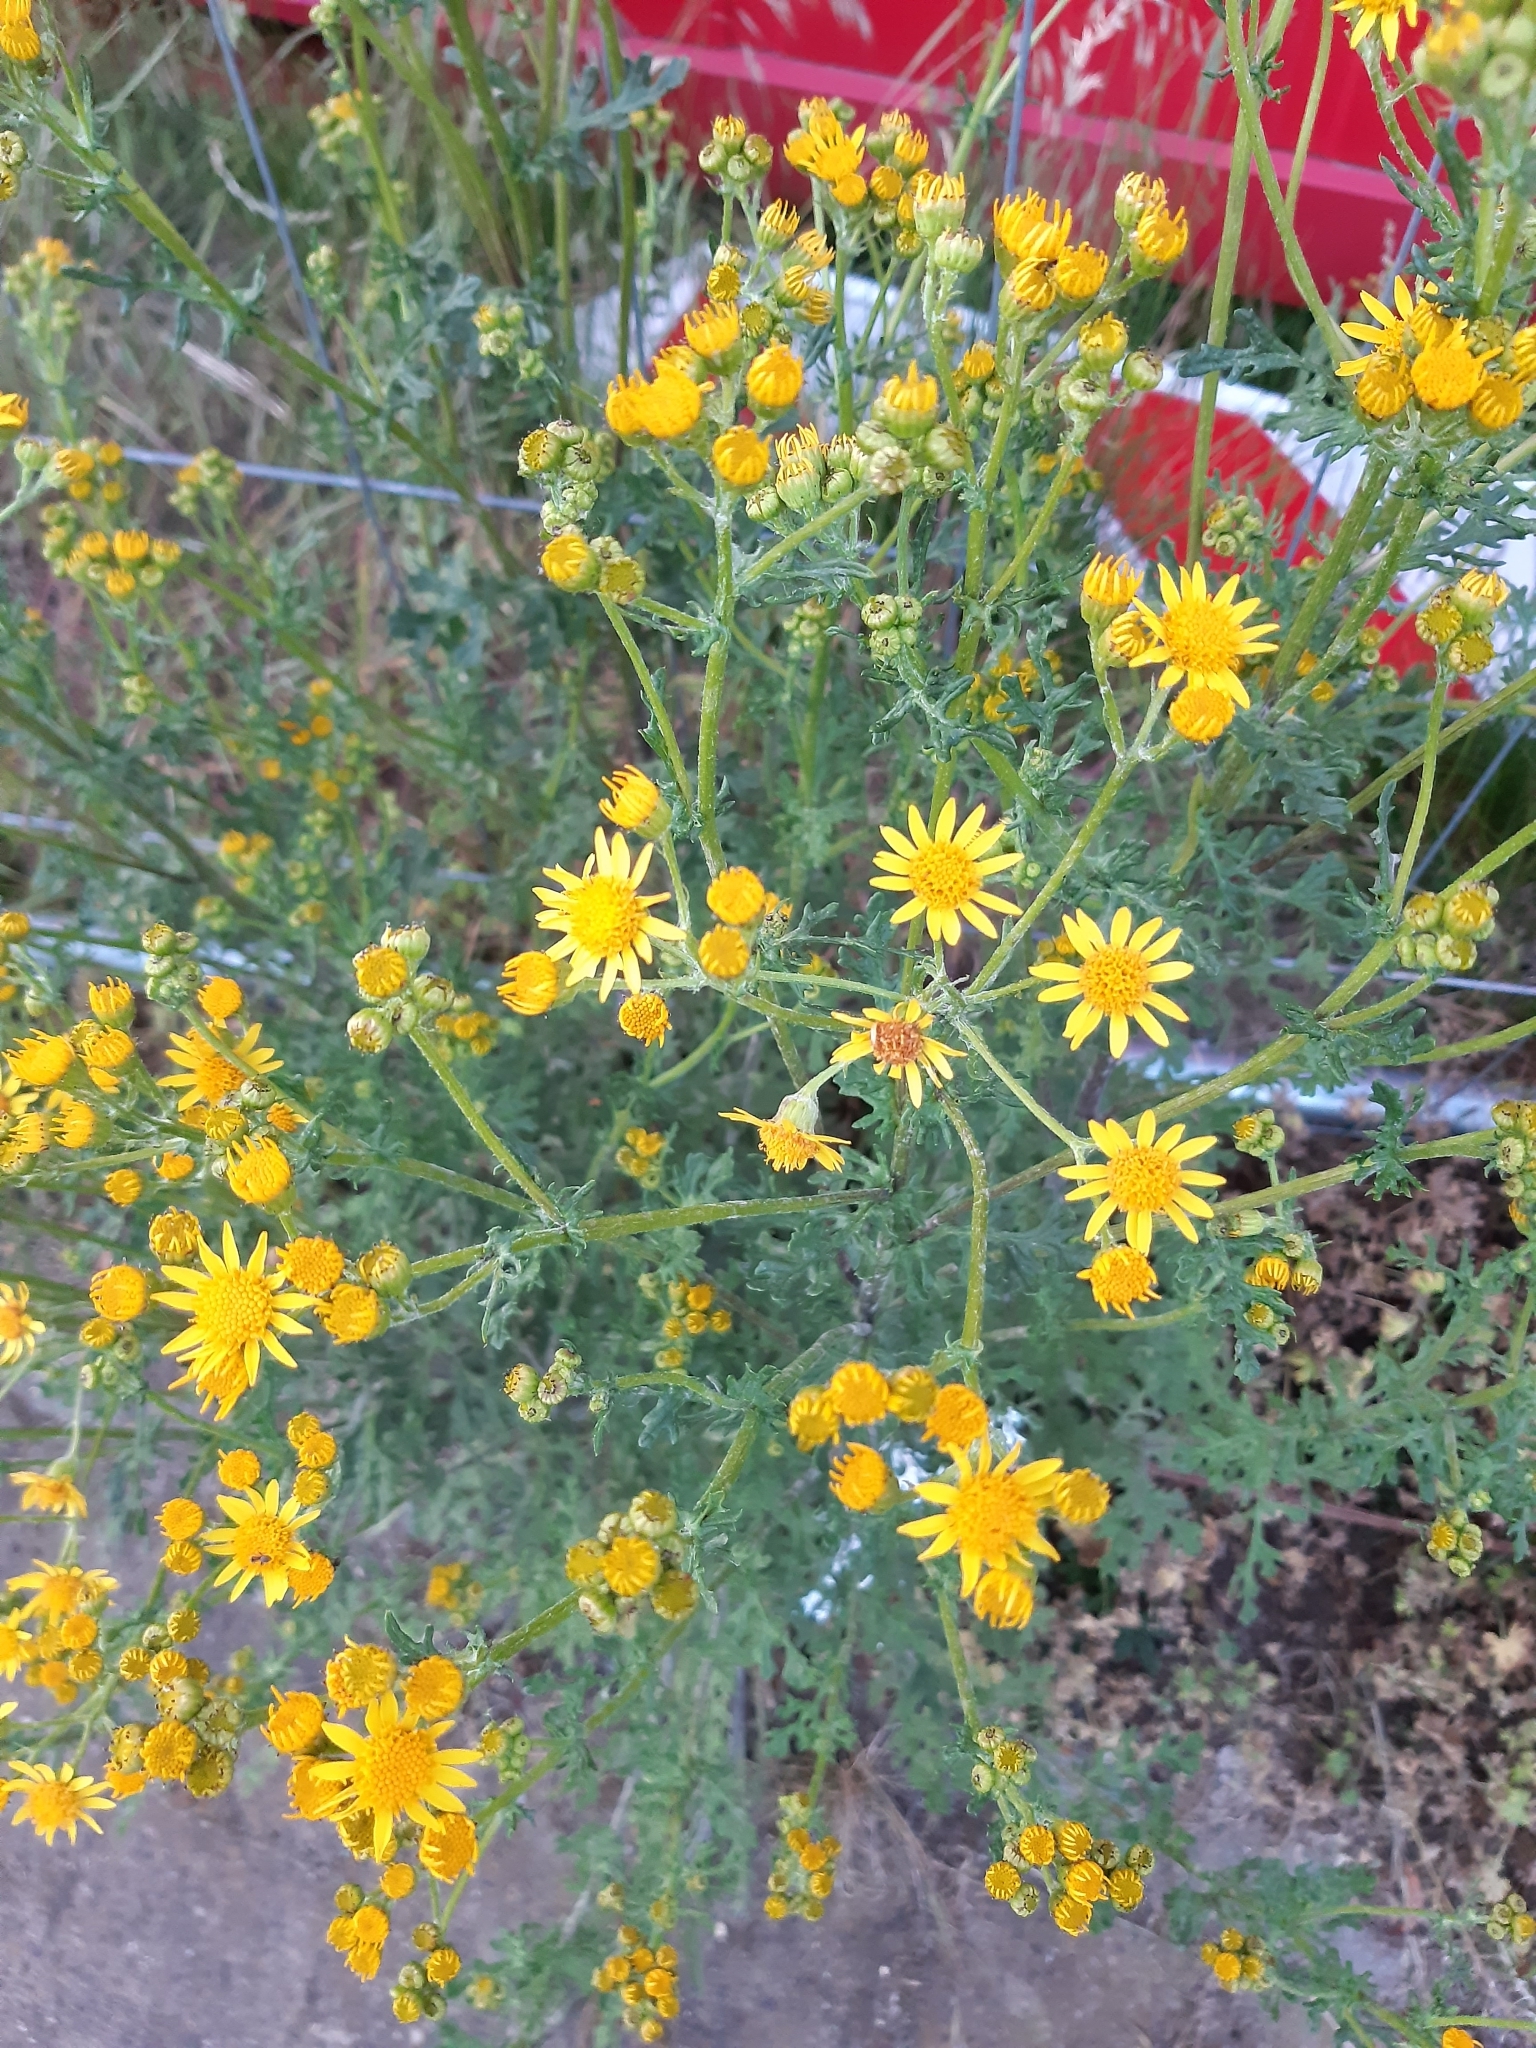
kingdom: Plantae
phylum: Tracheophyta
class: Magnoliopsida
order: Asterales
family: Asteraceae
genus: Jacobaea
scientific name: Jacobaea vulgaris
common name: Stinking willie
